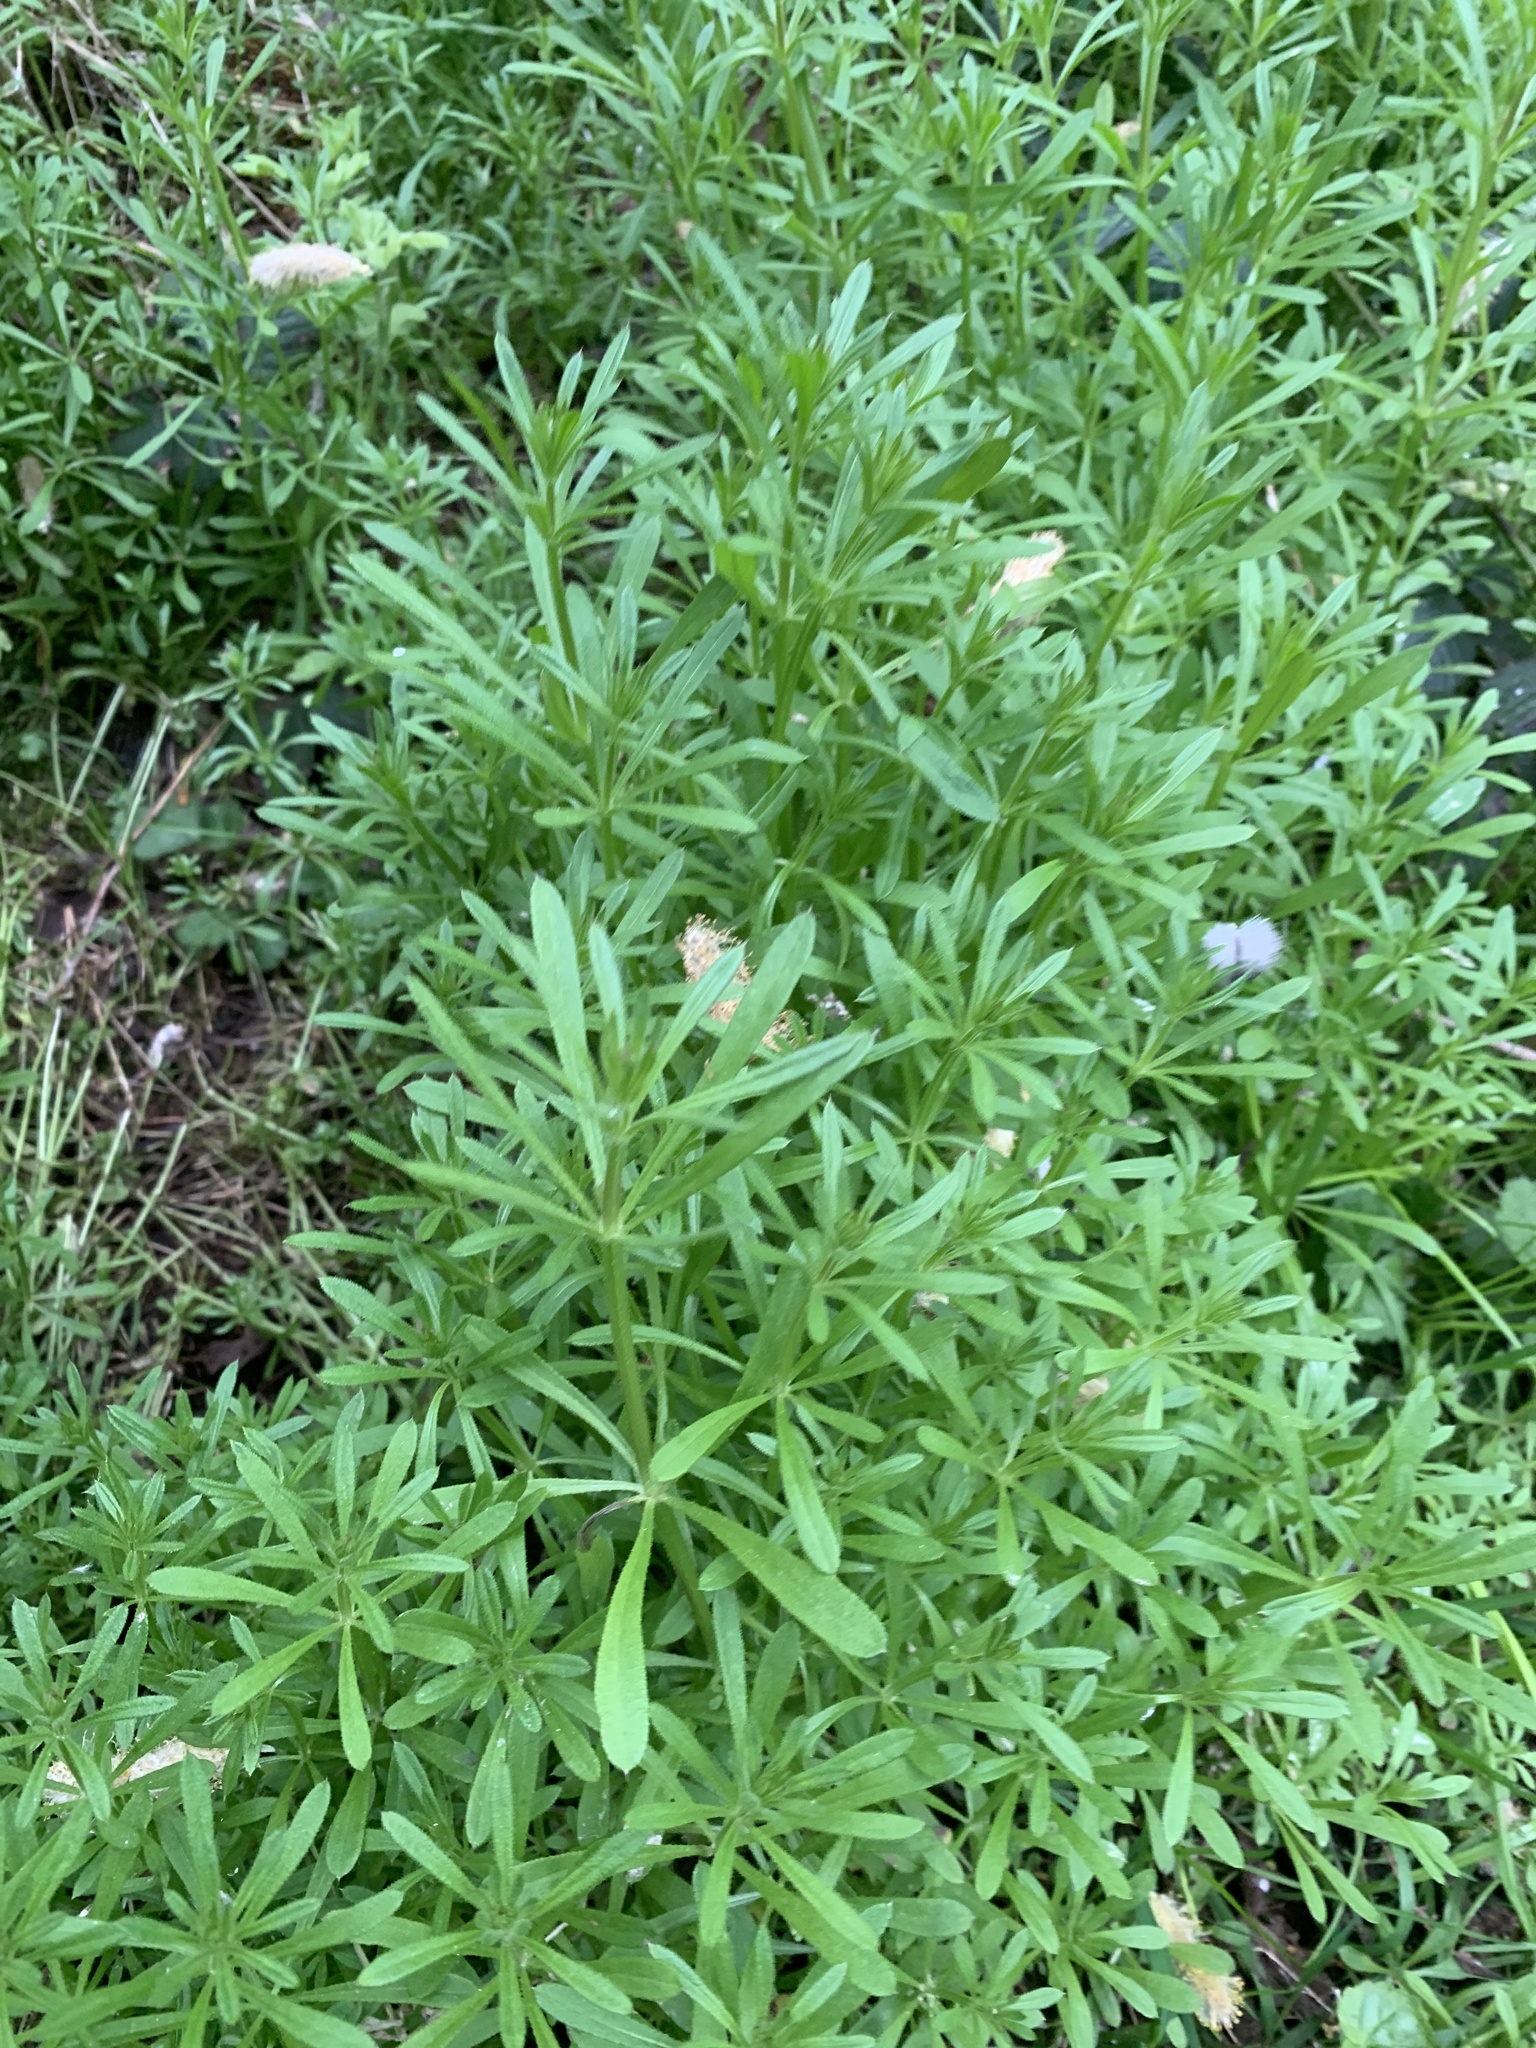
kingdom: Plantae
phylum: Tracheophyta
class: Magnoliopsida
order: Gentianales
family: Rubiaceae
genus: Galium
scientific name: Galium aparine
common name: Cleavers
